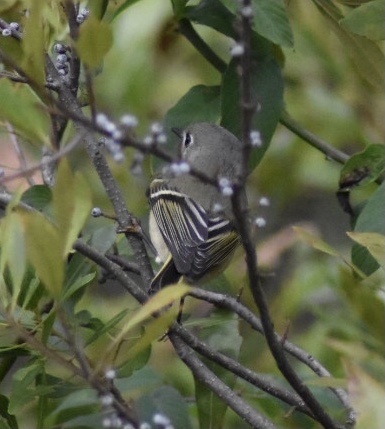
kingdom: Animalia
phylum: Chordata
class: Aves
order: Passeriformes
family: Regulidae
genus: Regulus
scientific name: Regulus calendula
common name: Ruby-crowned kinglet
